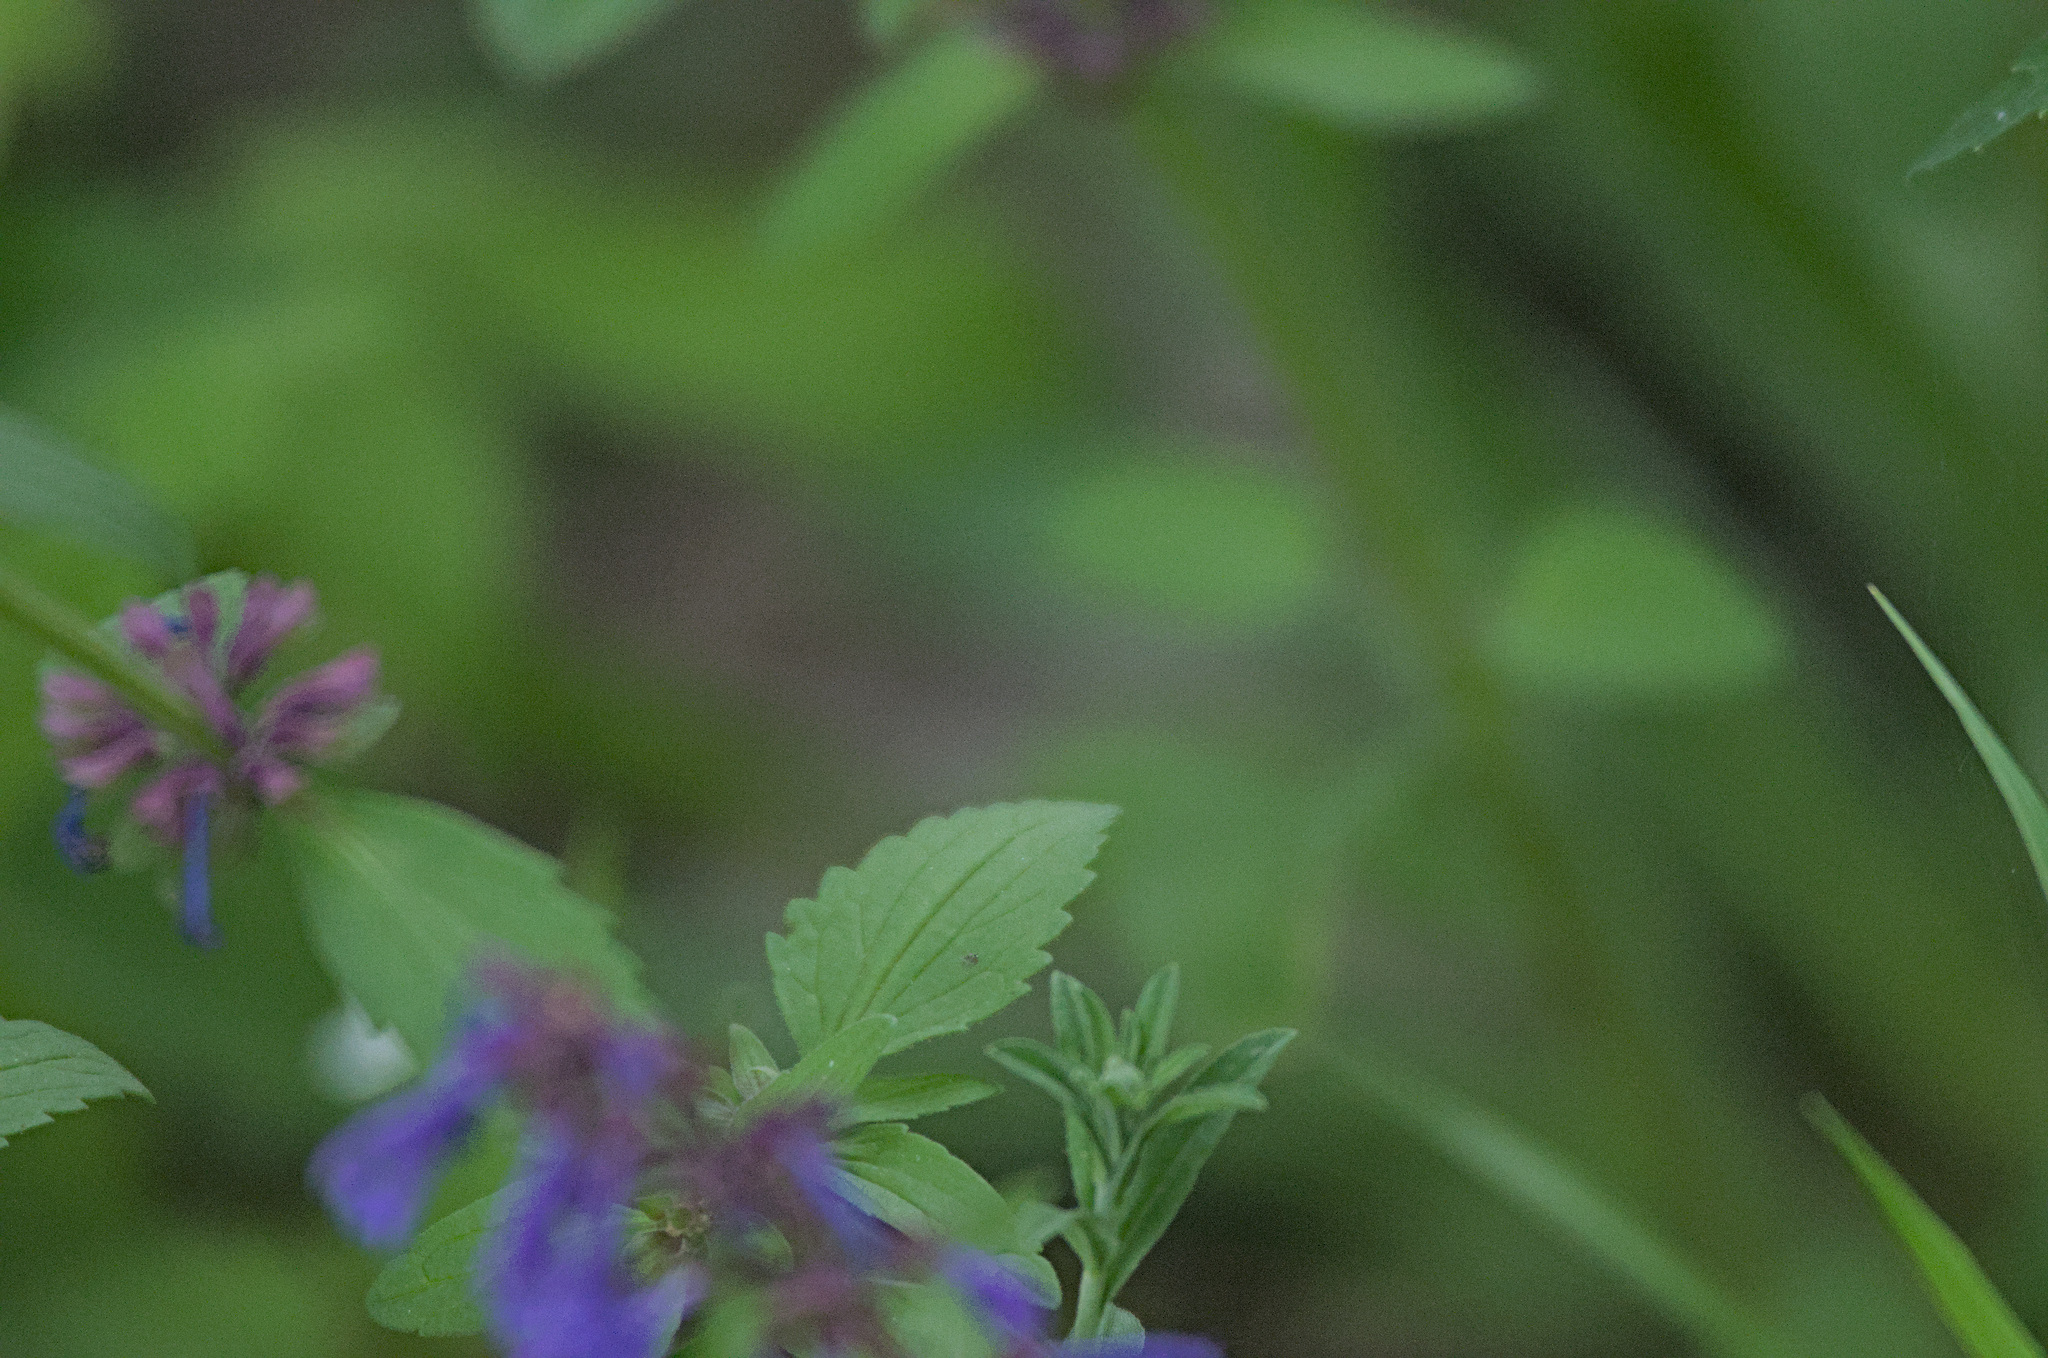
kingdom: Plantae
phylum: Tracheophyta
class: Magnoliopsida
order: Lamiales
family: Lamiaceae
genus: Dracocephalum
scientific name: Dracocephalum nutans
